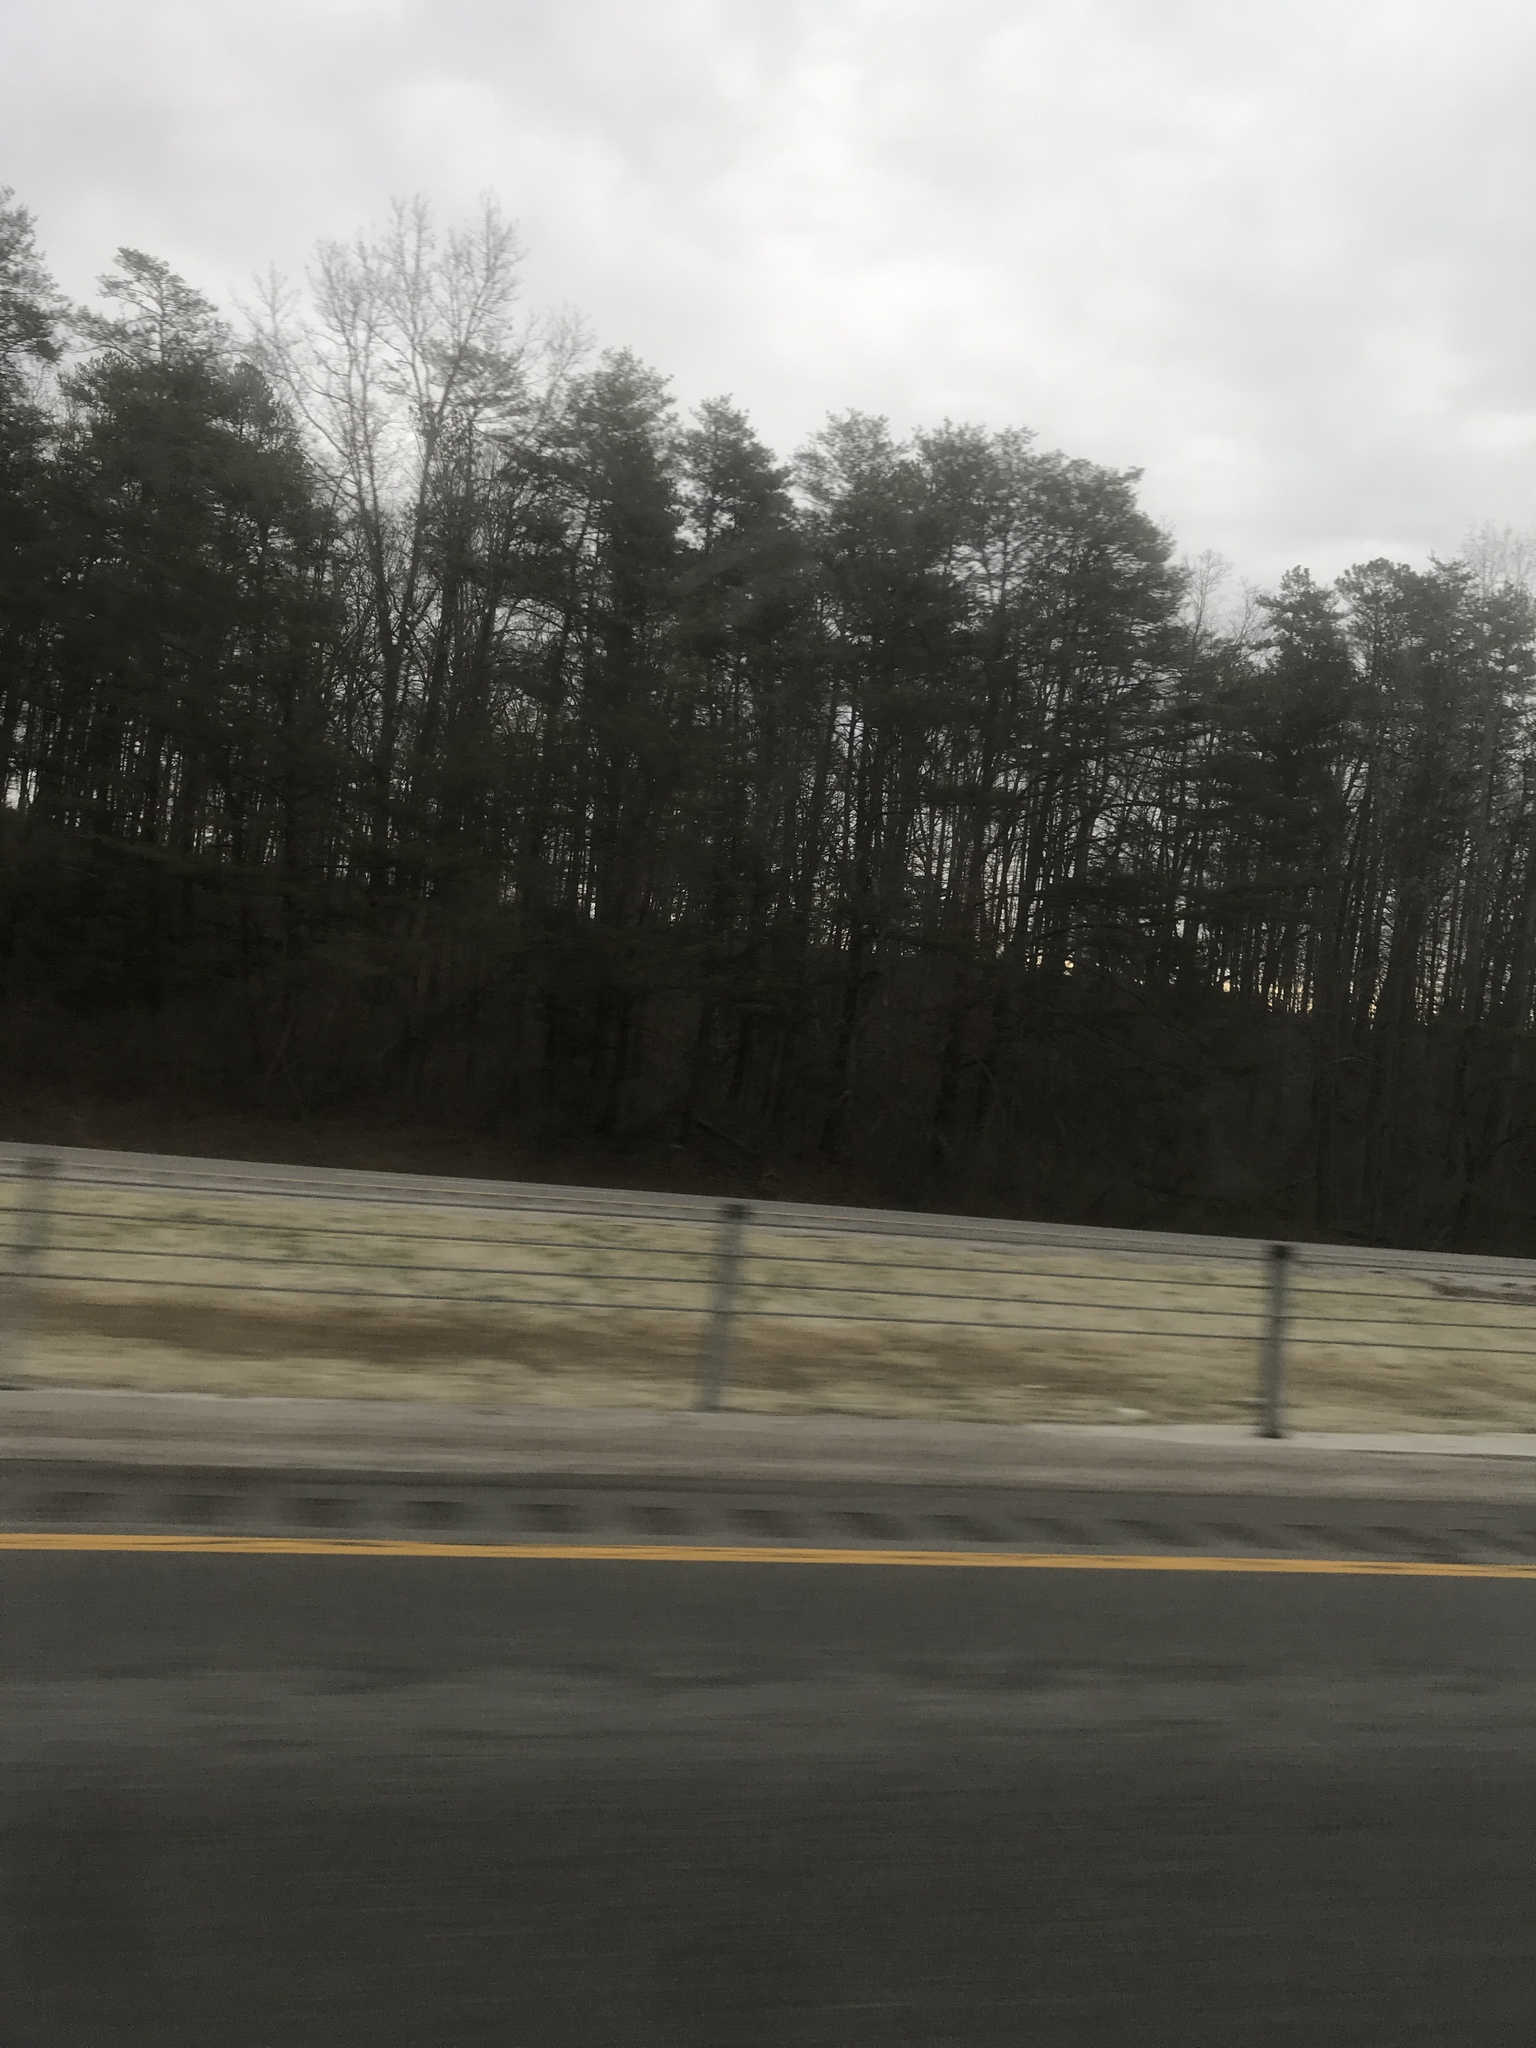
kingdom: Plantae
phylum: Tracheophyta
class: Pinopsida
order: Pinales
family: Pinaceae
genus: Pinus
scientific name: Pinus virginiana
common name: Scrub pine
